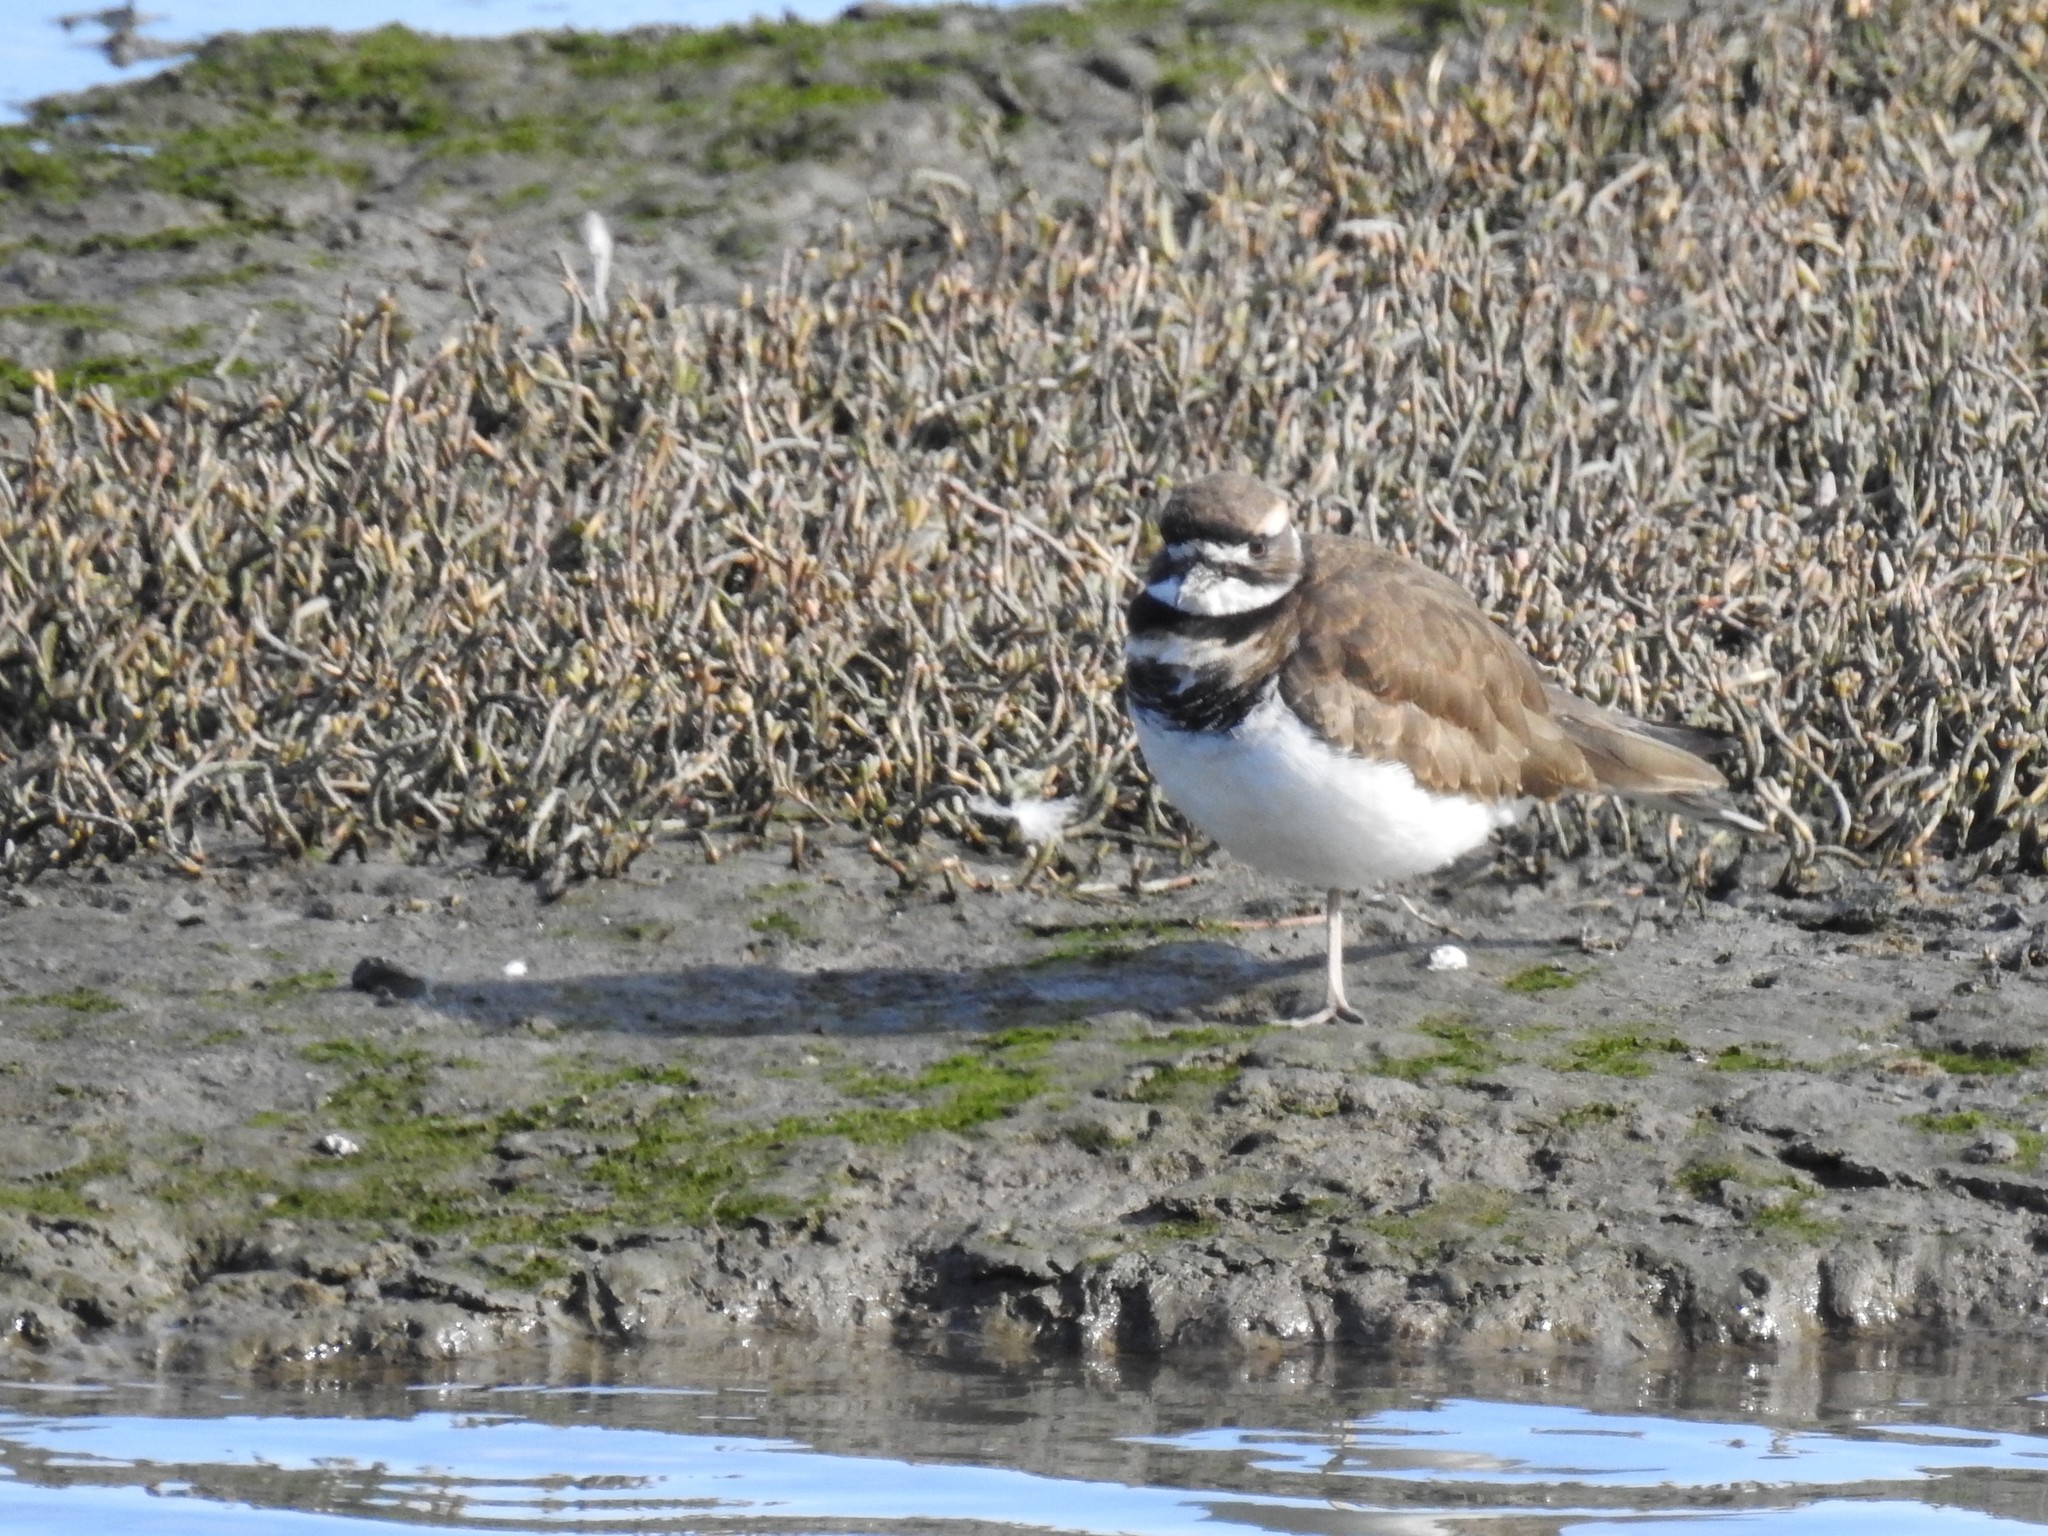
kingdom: Animalia
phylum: Chordata
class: Aves
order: Charadriiformes
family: Charadriidae
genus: Charadrius
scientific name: Charadrius vociferus
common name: Killdeer
